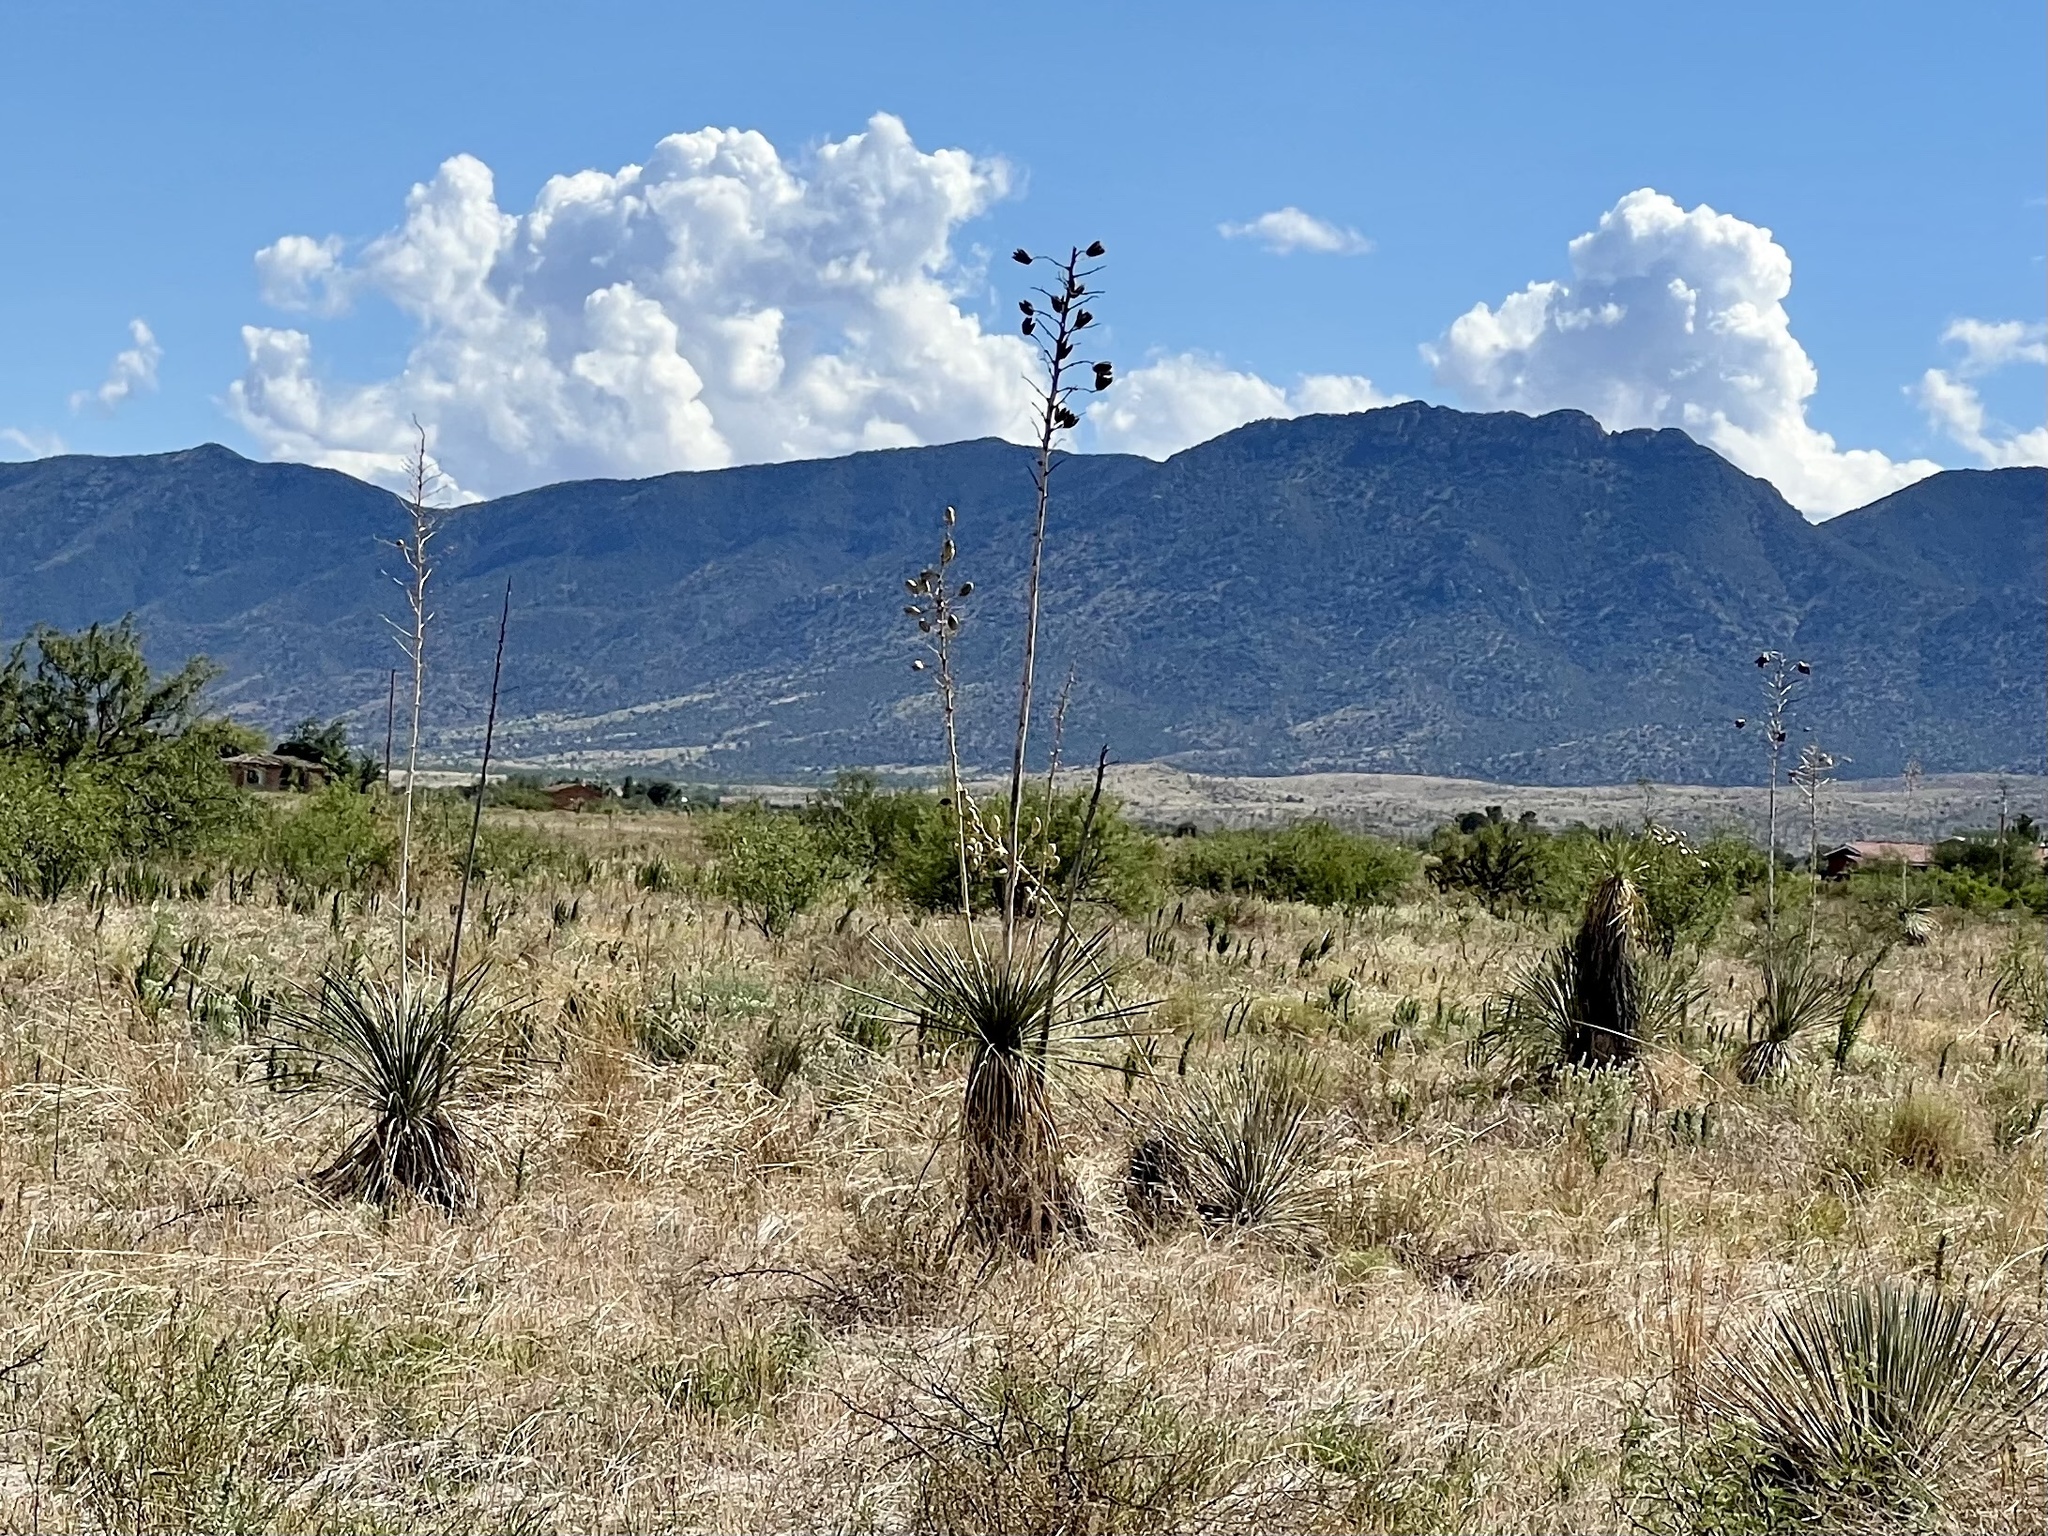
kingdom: Plantae
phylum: Tracheophyta
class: Liliopsida
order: Asparagales
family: Asparagaceae
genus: Yucca
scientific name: Yucca elata
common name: Palmella
